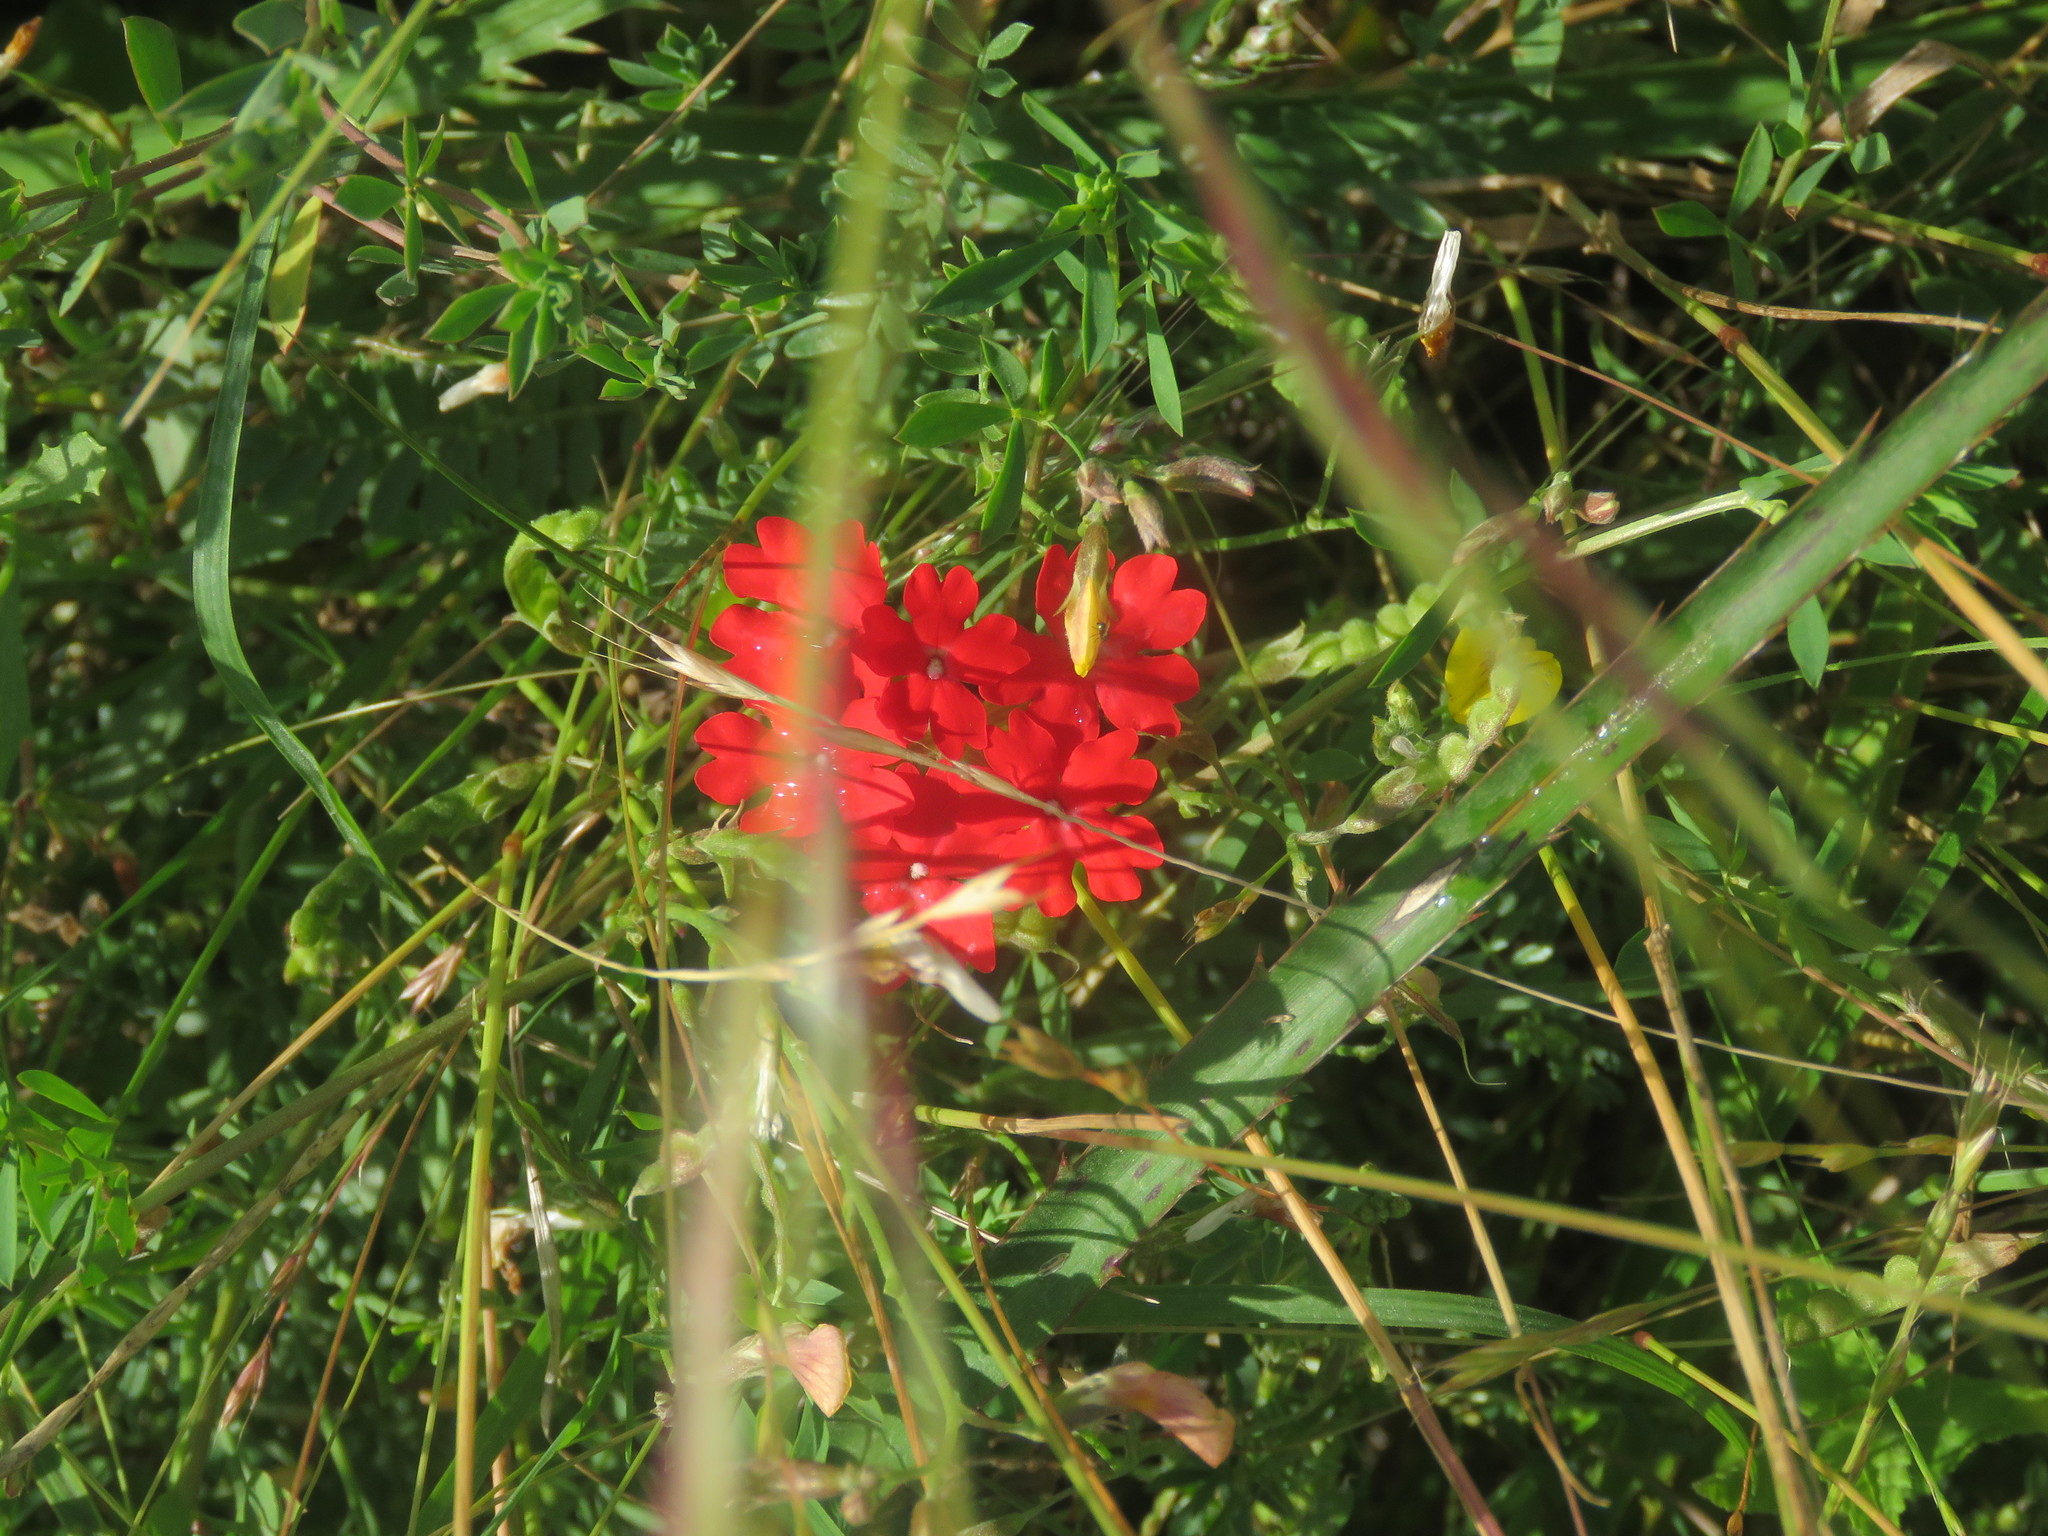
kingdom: Plantae
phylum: Tracheophyta
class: Magnoliopsida
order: Lamiales
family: Verbenaceae
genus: Verbena
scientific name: Verbena peruviana
